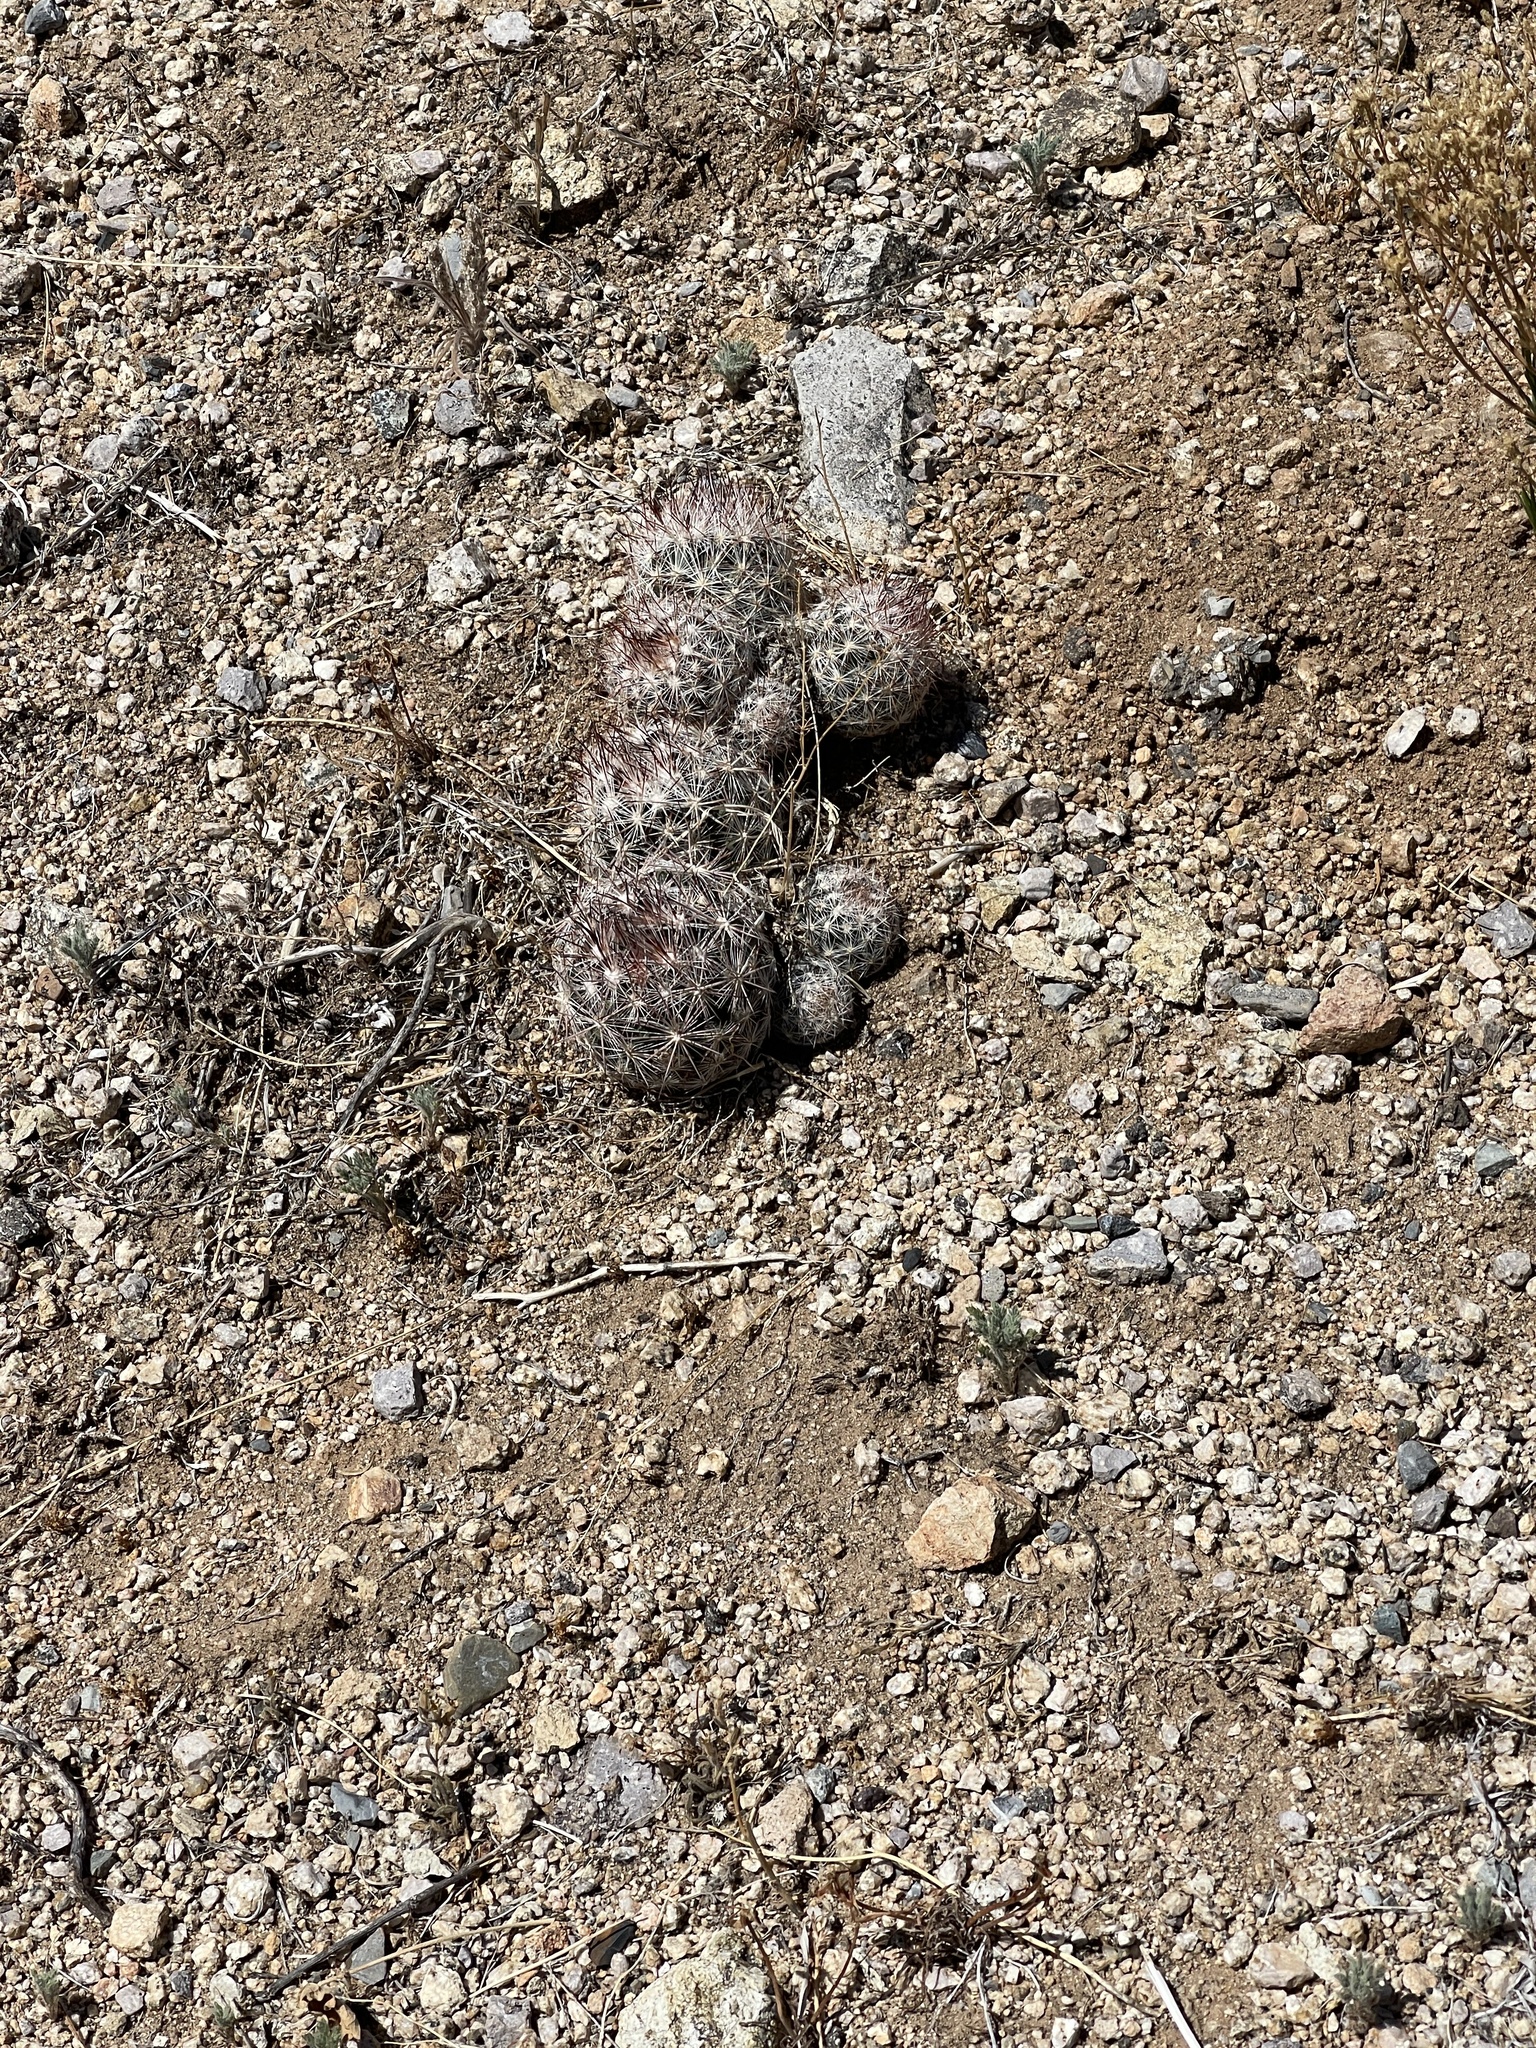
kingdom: Plantae
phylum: Tracheophyta
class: Magnoliopsida
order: Caryophyllales
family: Cactaceae
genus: Pelecyphora
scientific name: Pelecyphora vivipara
